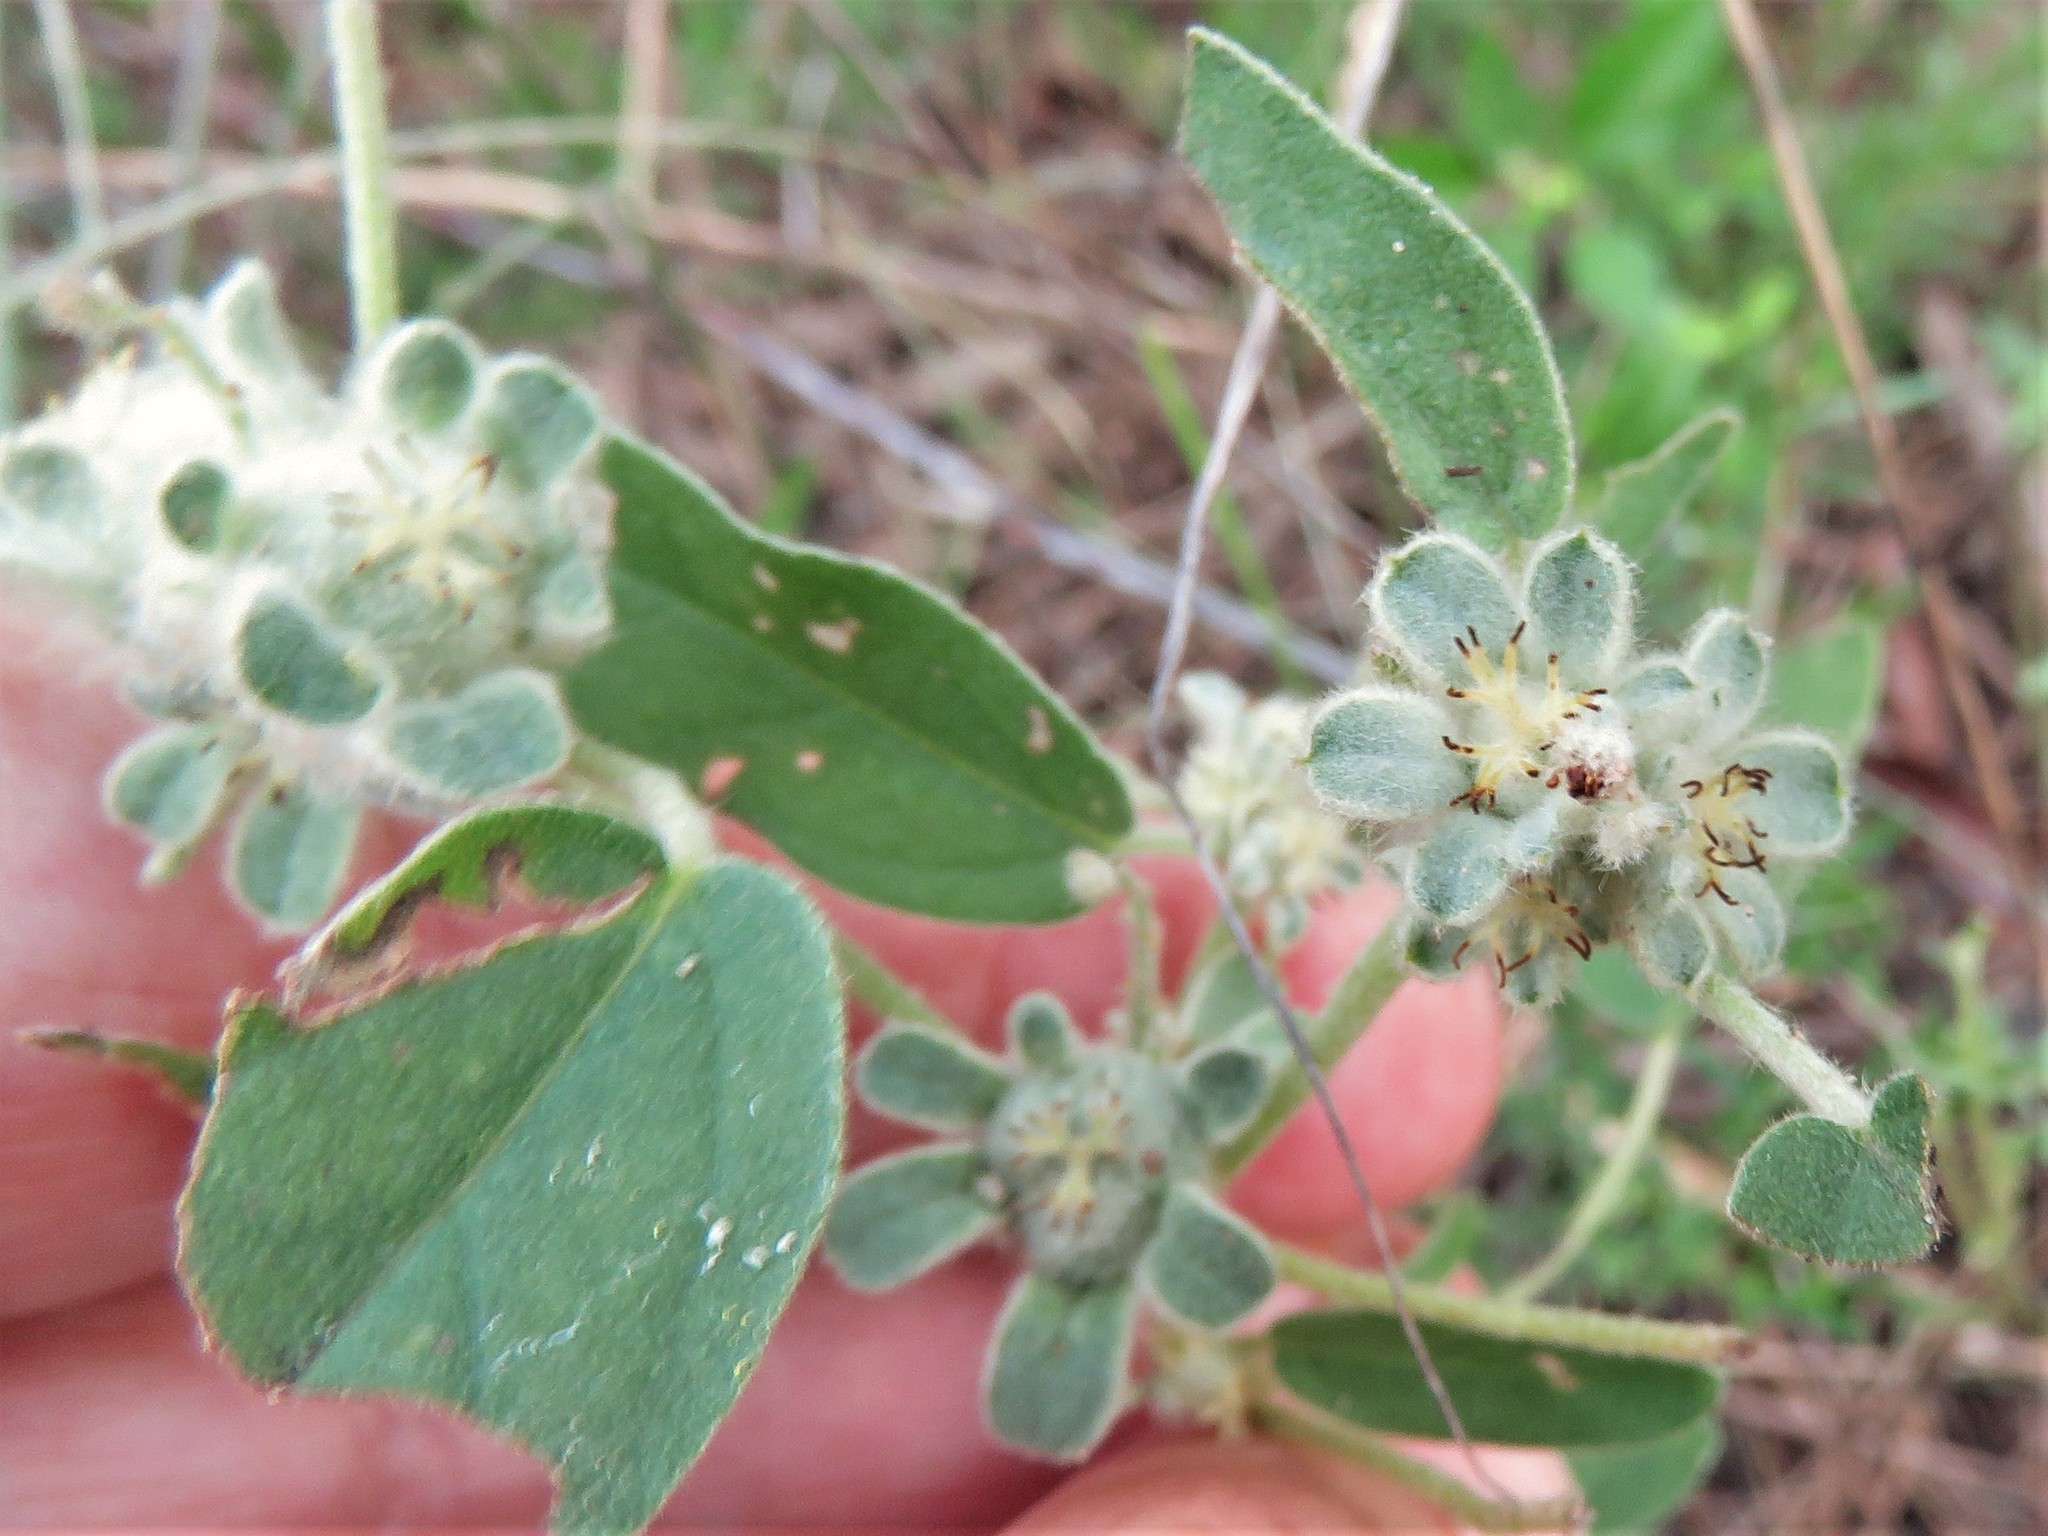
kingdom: Plantae
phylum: Tracheophyta
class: Magnoliopsida
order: Malpighiales
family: Euphorbiaceae
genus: Croton
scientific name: Croton capitatus
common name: Woolly croton
